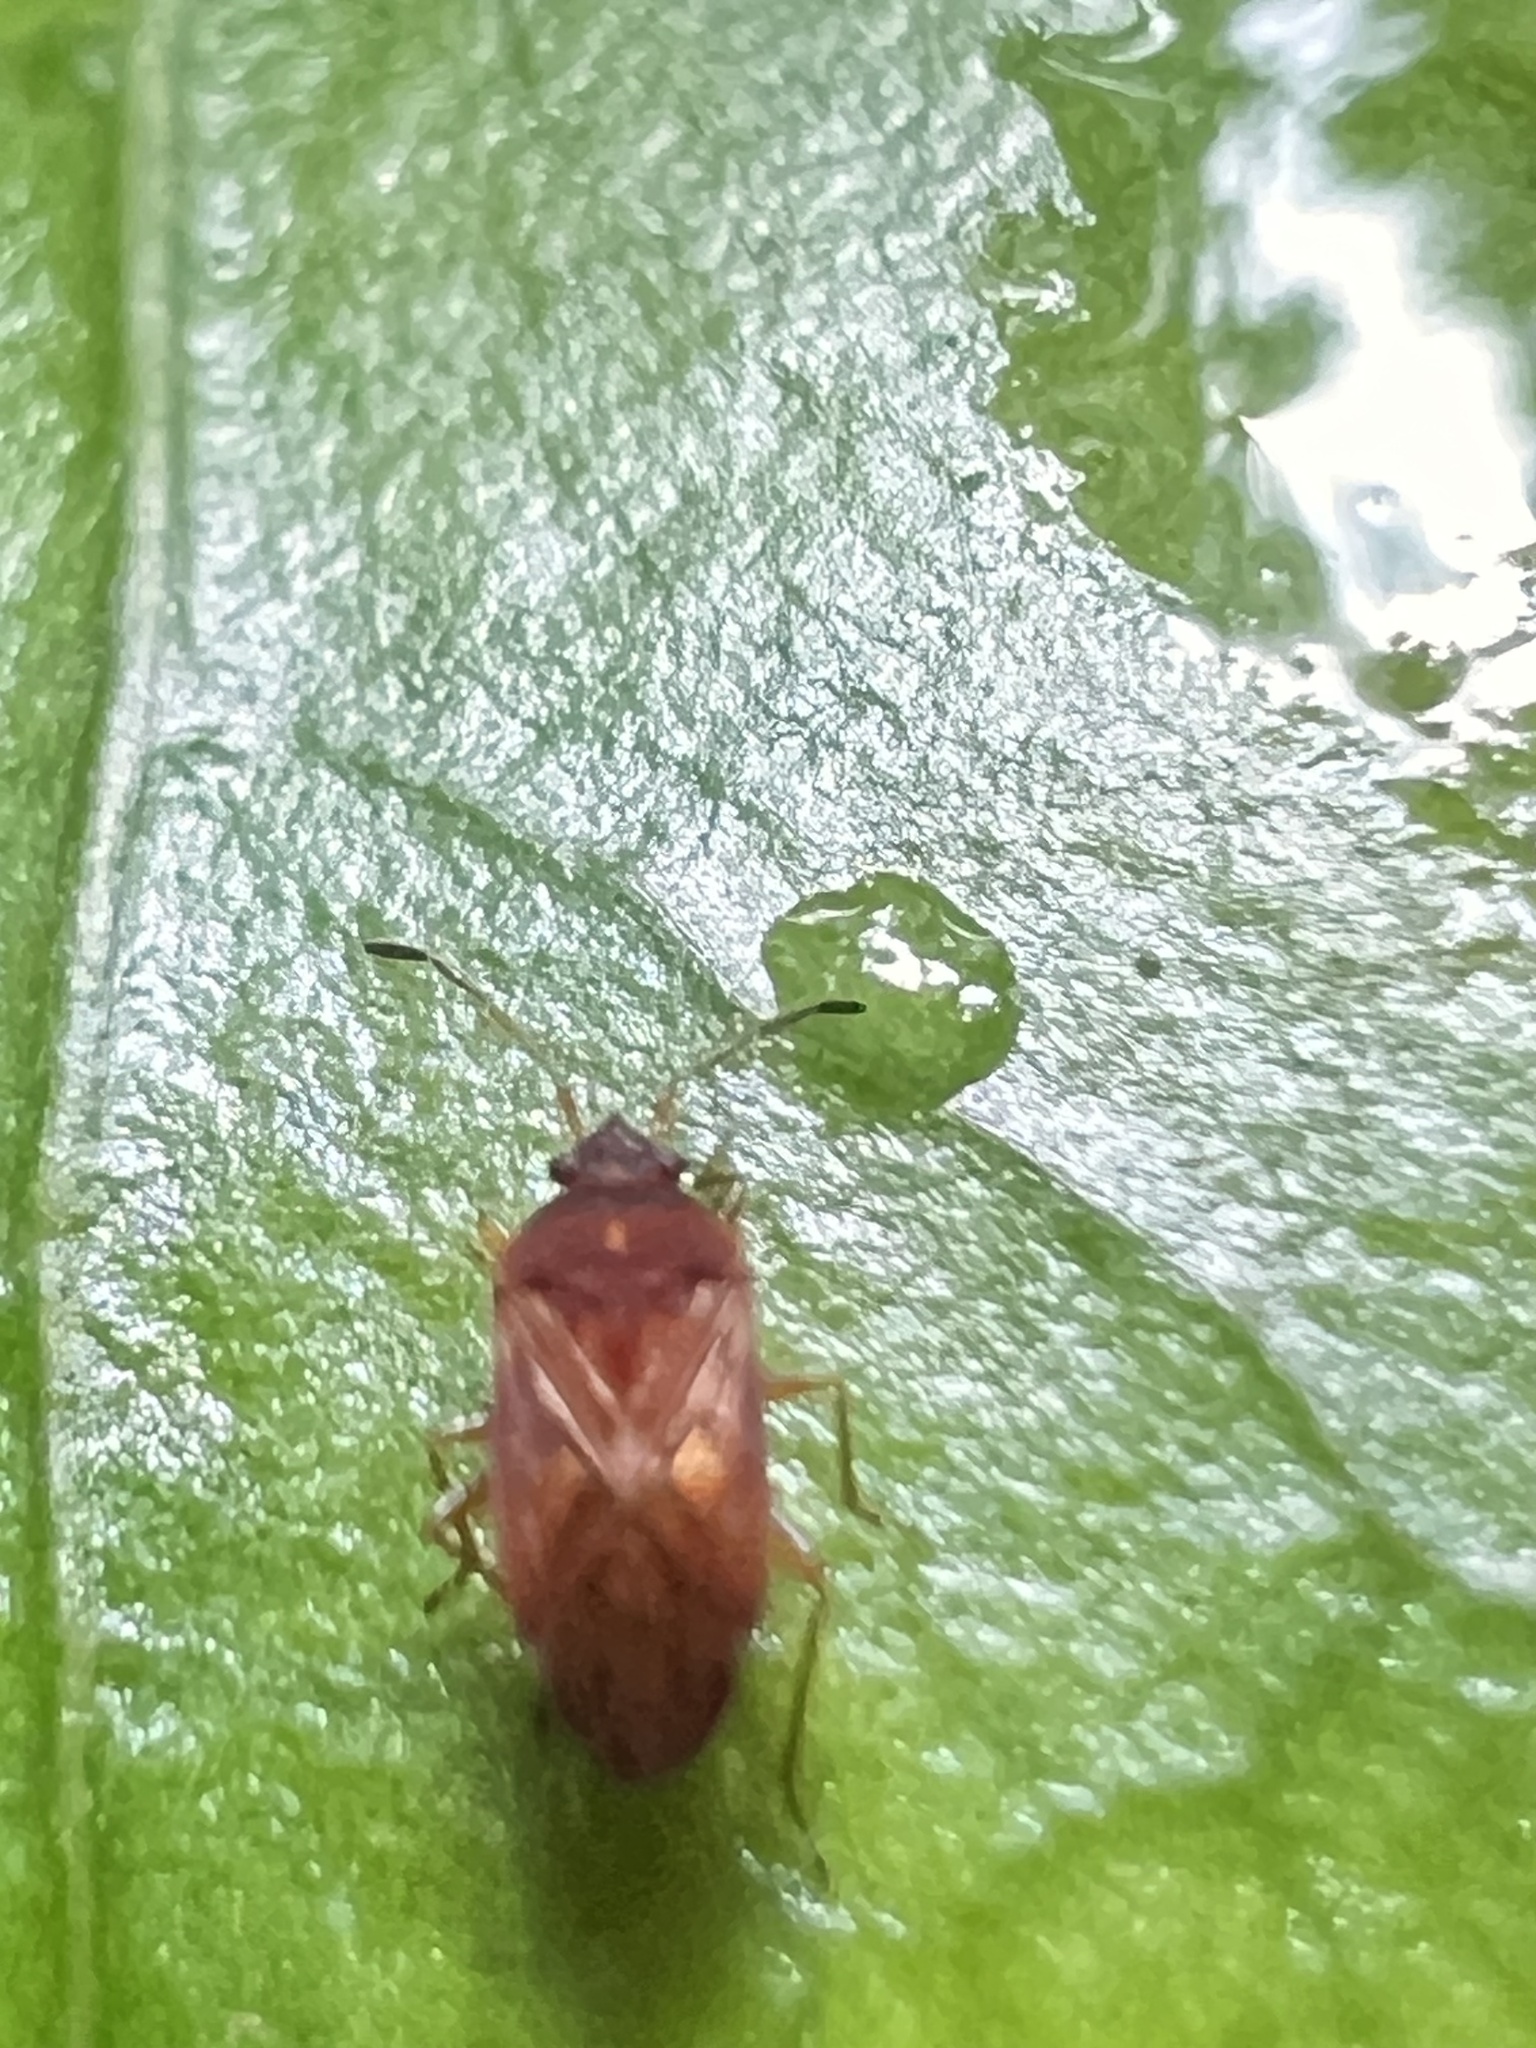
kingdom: Animalia
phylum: Arthropoda
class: Insecta
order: Hemiptera
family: Rhyparochromidae
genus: Targarema
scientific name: Targarema stali
